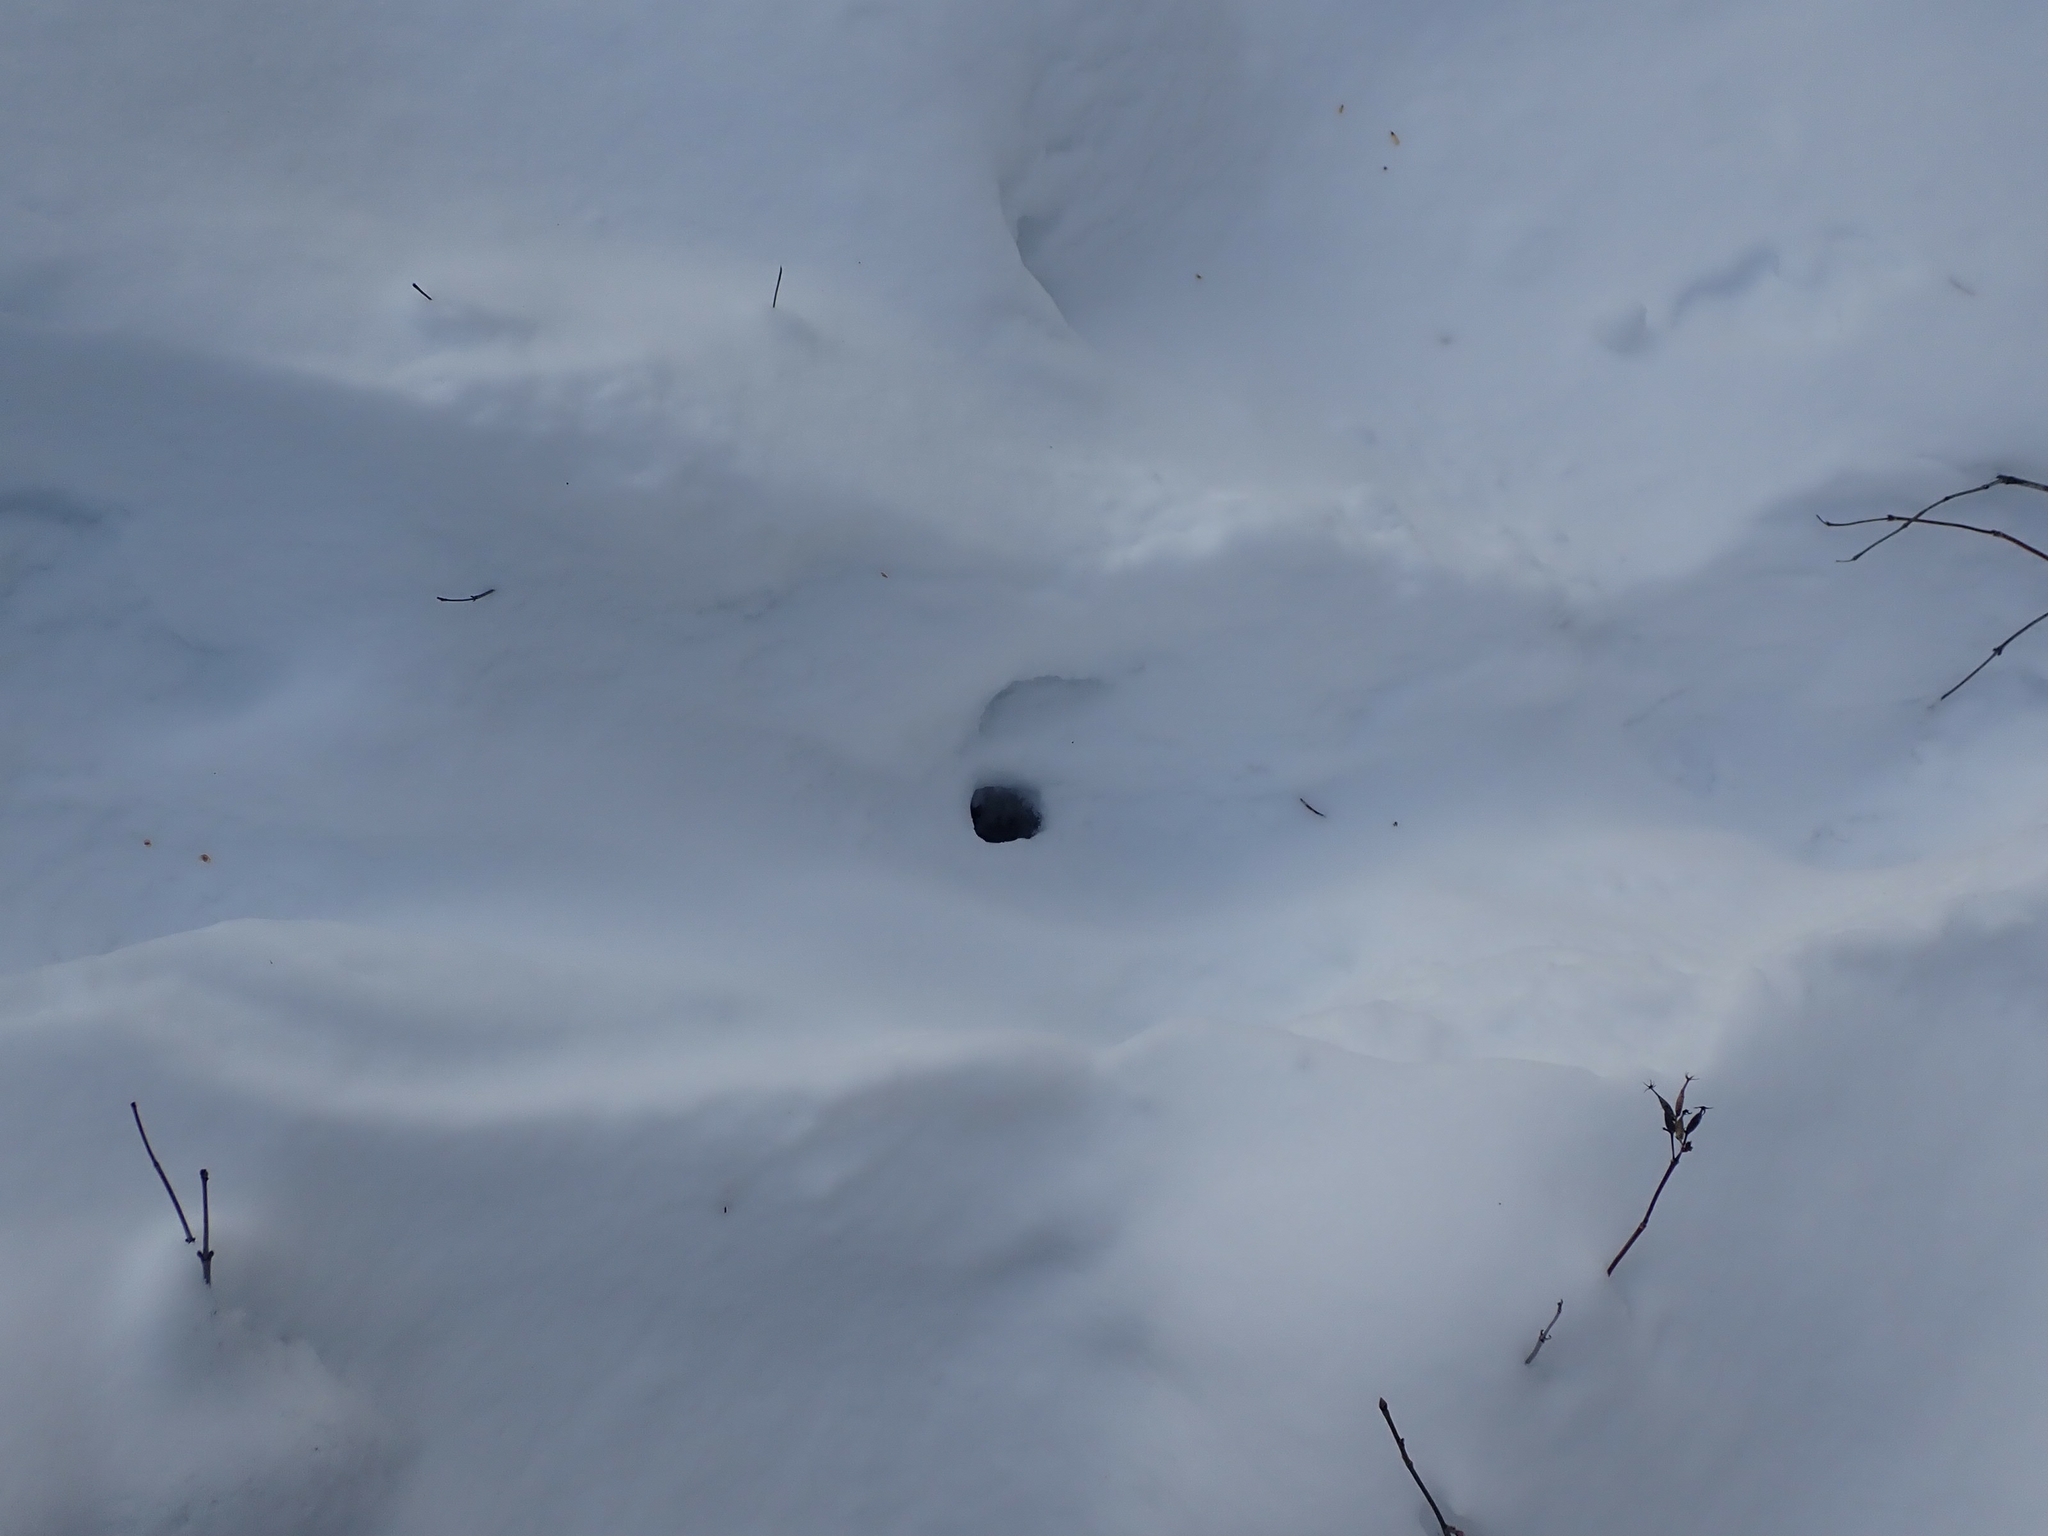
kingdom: Animalia
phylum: Chordata
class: Mammalia
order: Carnivora
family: Mustelidae
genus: Lontra
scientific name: Lontra canadensis
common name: North american river otter
